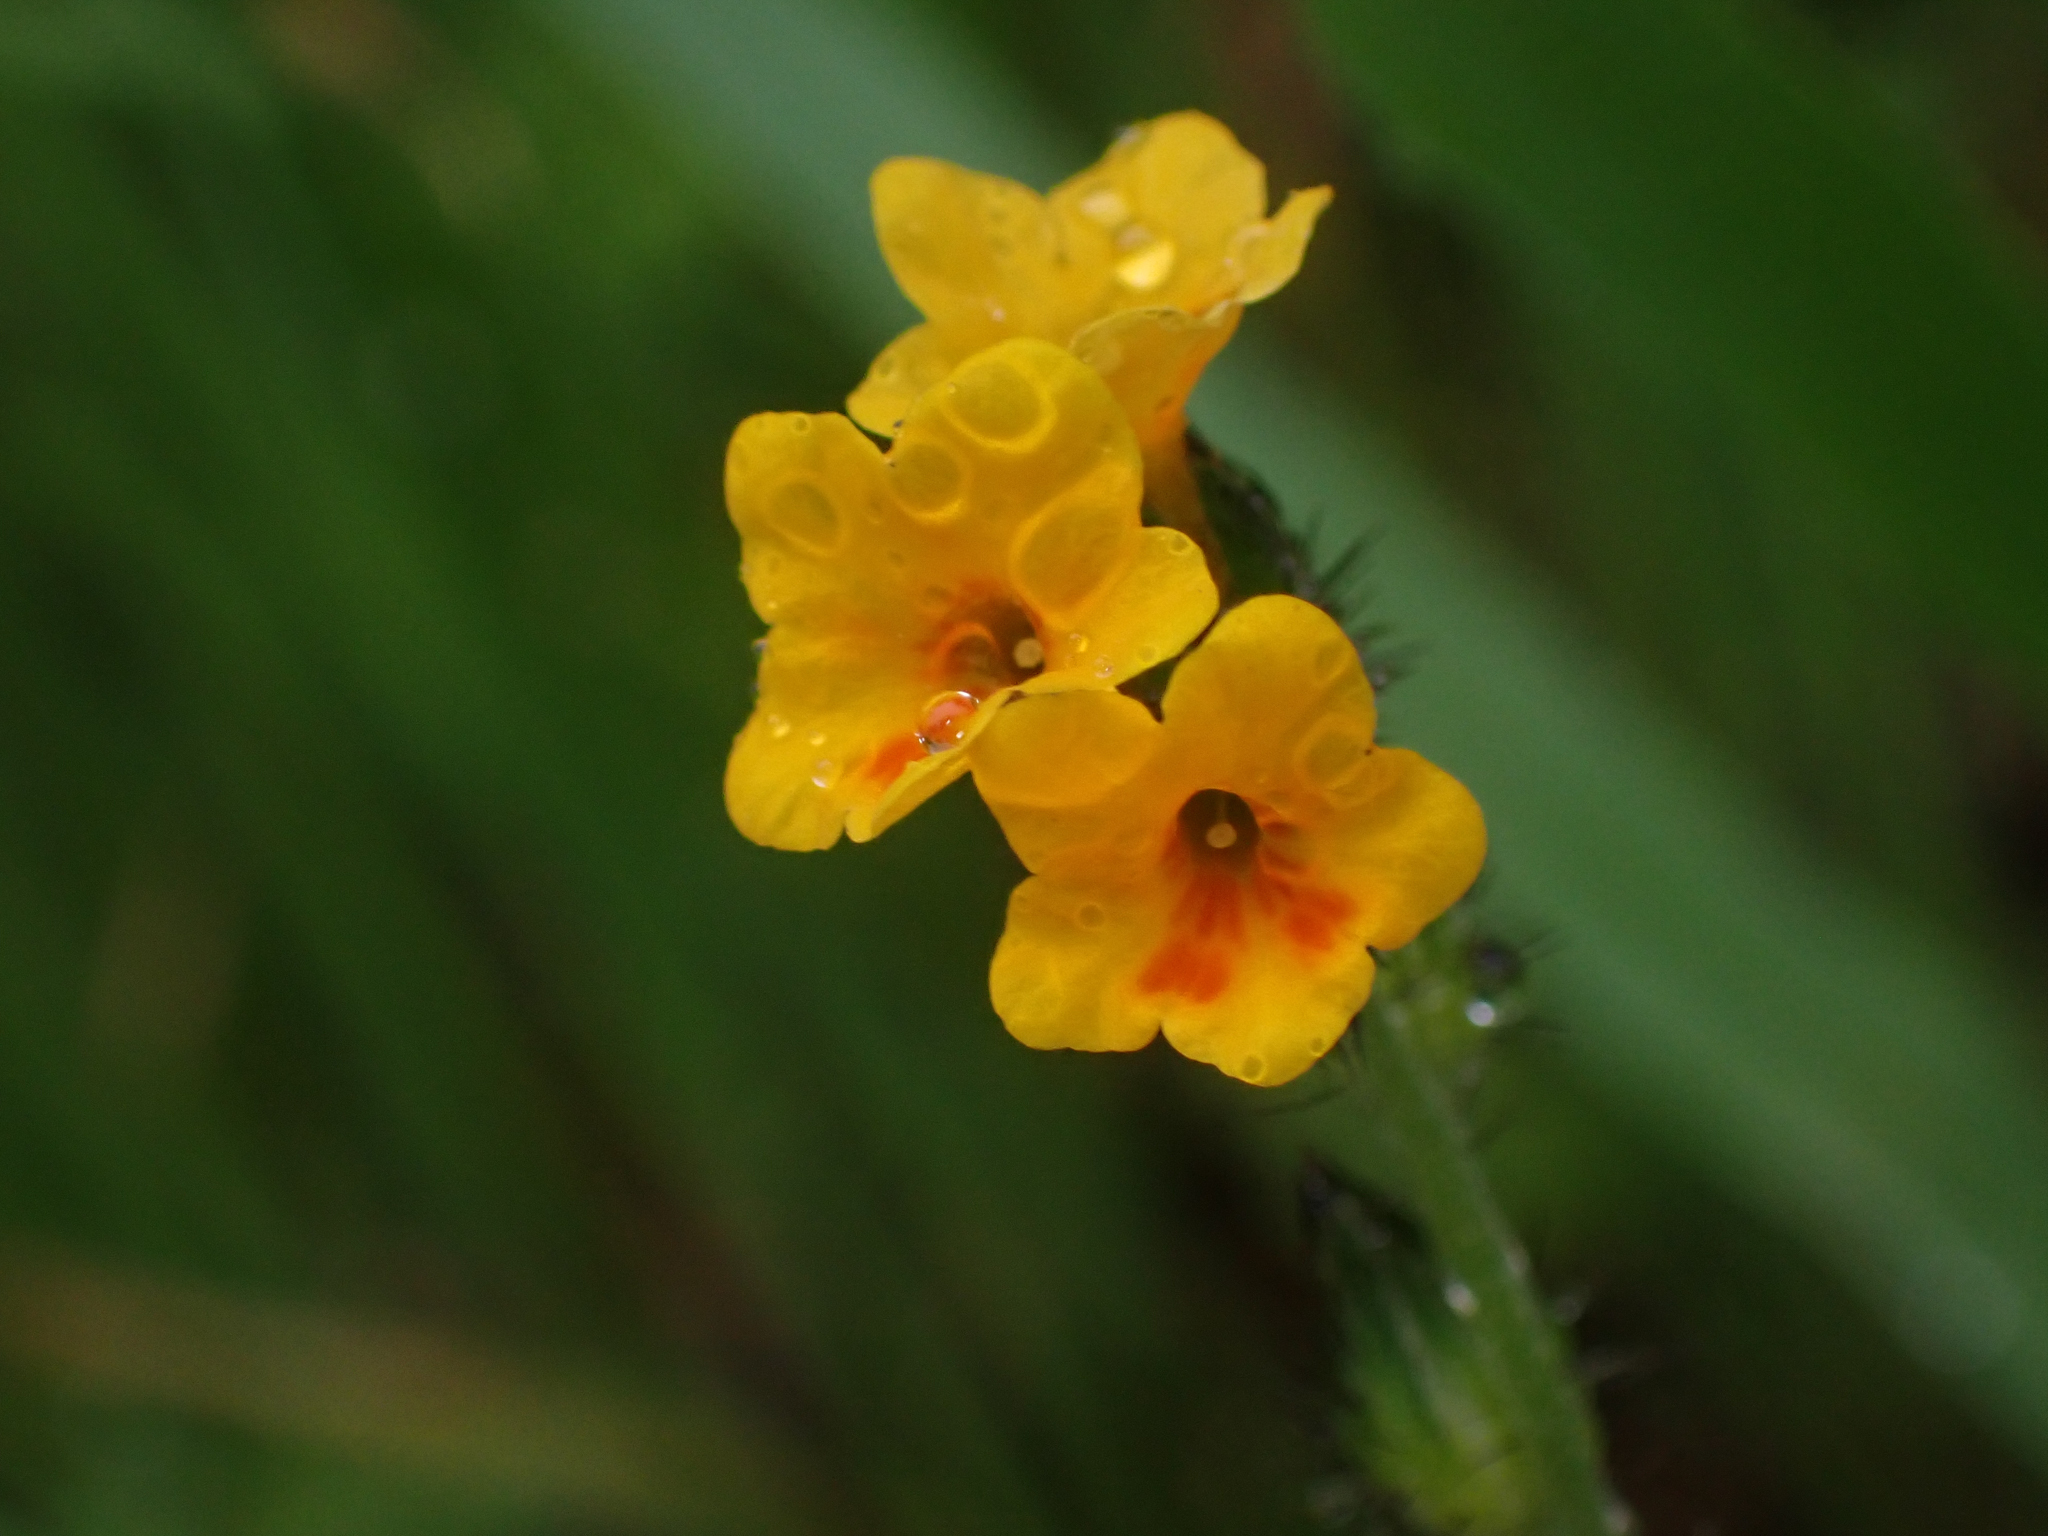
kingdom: Plantae
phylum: Tracheophyta
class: Magnoliopsida
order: Boraginales
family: Boraginaceae
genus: Amsinckia
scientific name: Amsinckia lunaris
